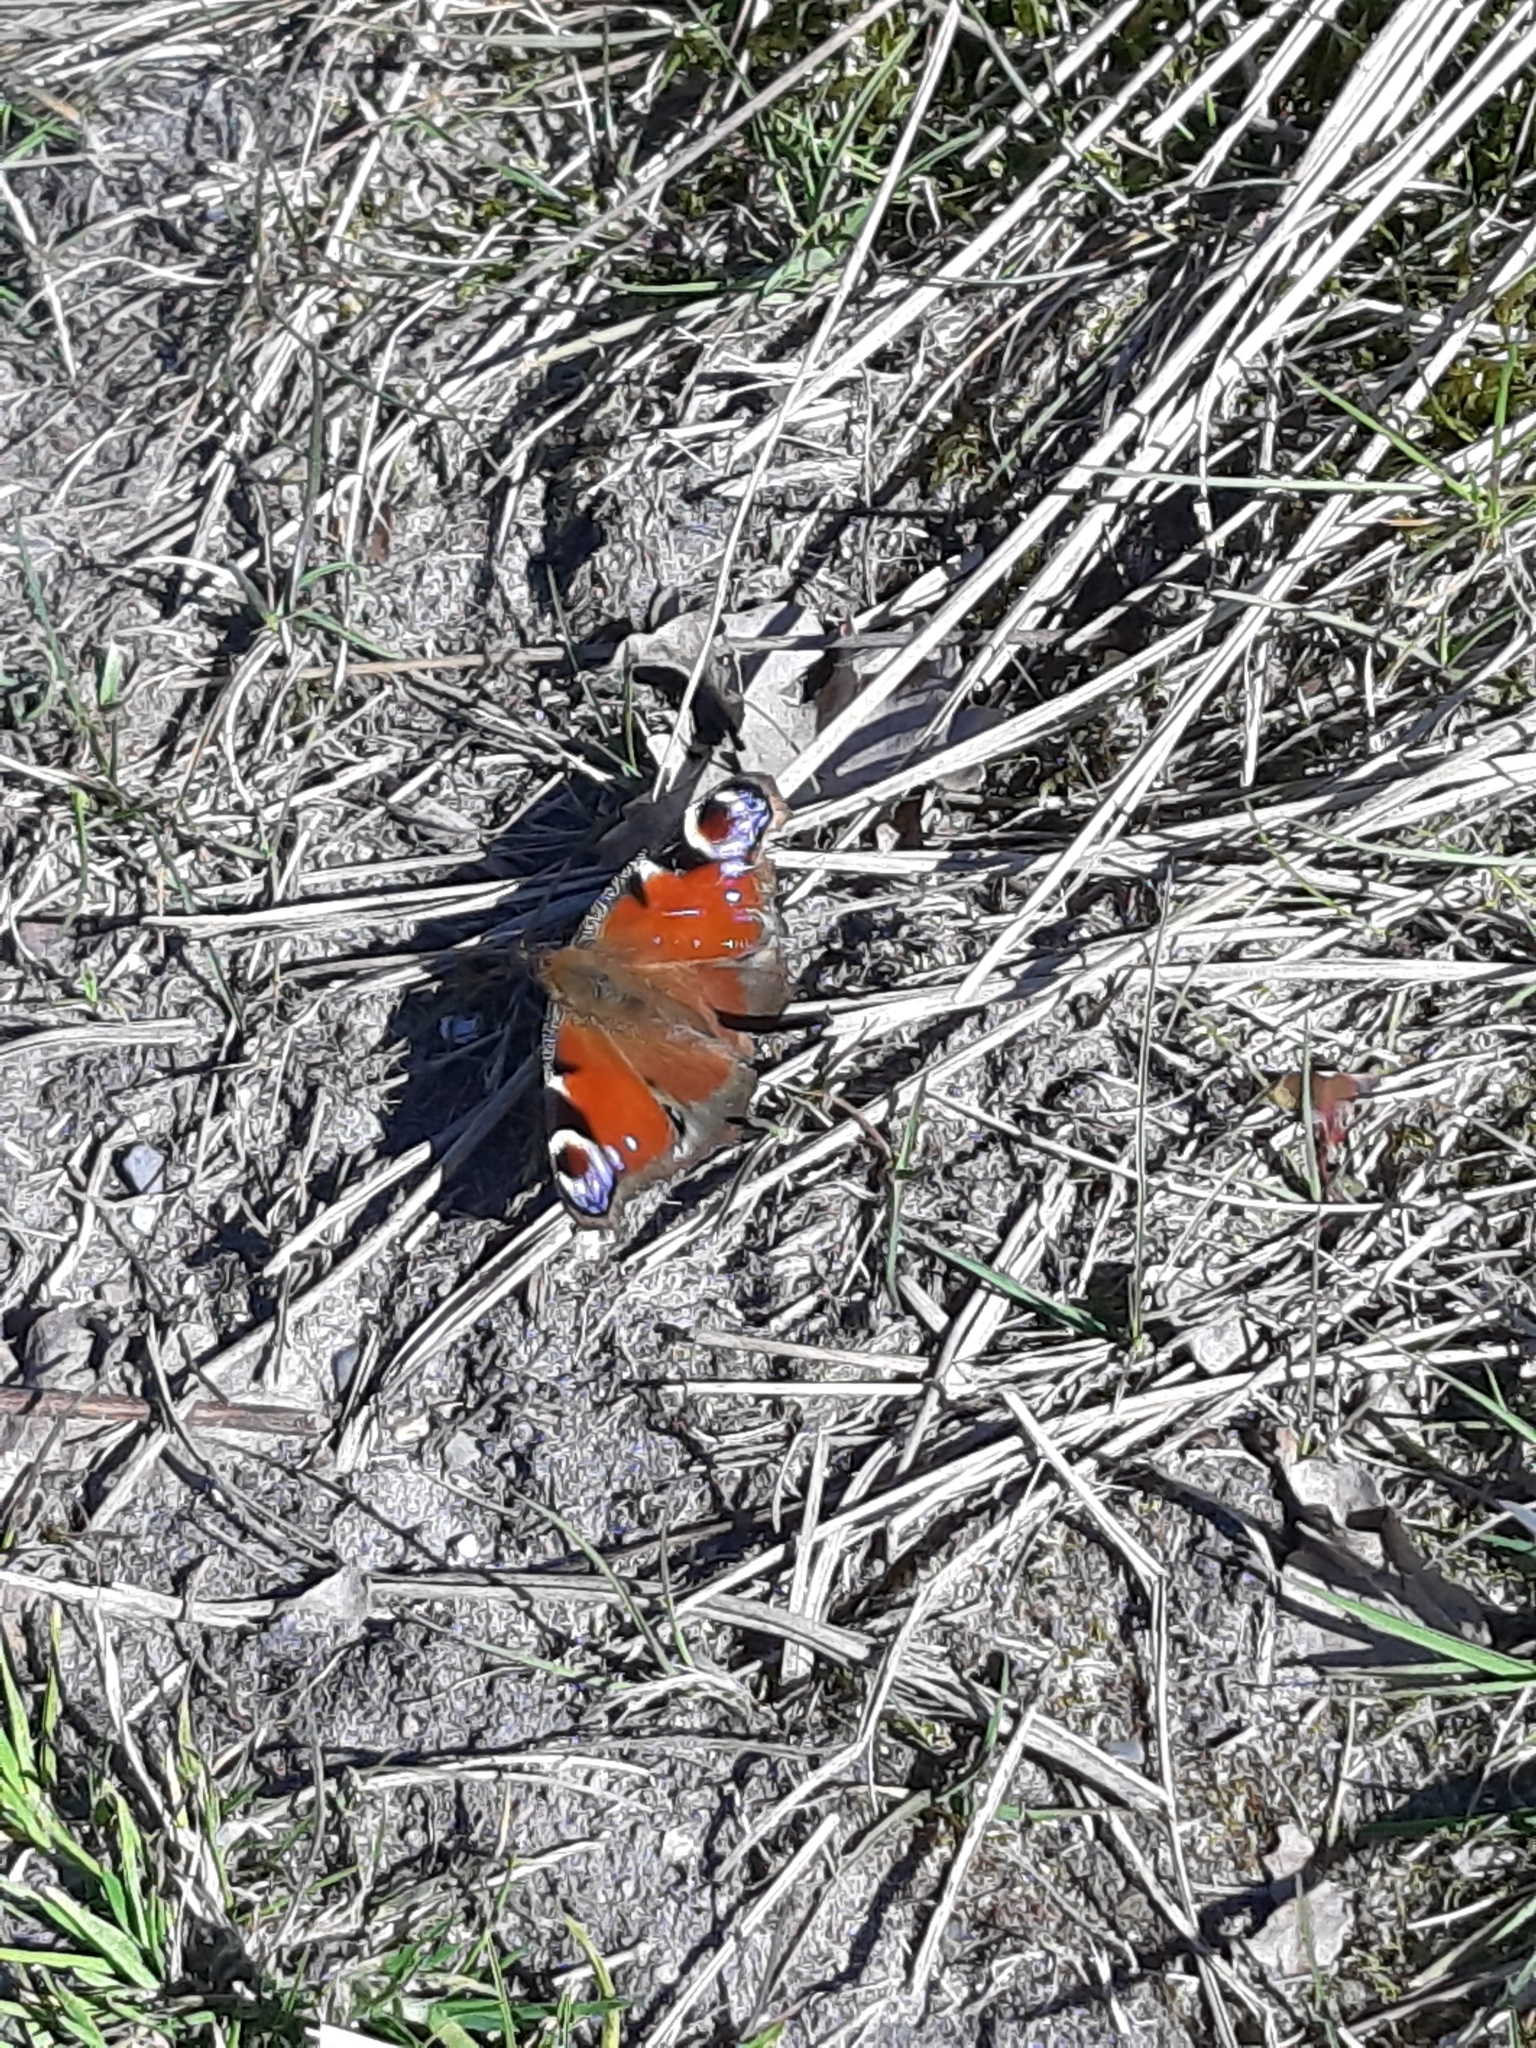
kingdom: Animalia
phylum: Arthropoda
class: Insecta
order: Lepidoptera
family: Nymphalidae
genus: Aglais
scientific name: Aglais io
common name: Peacock
